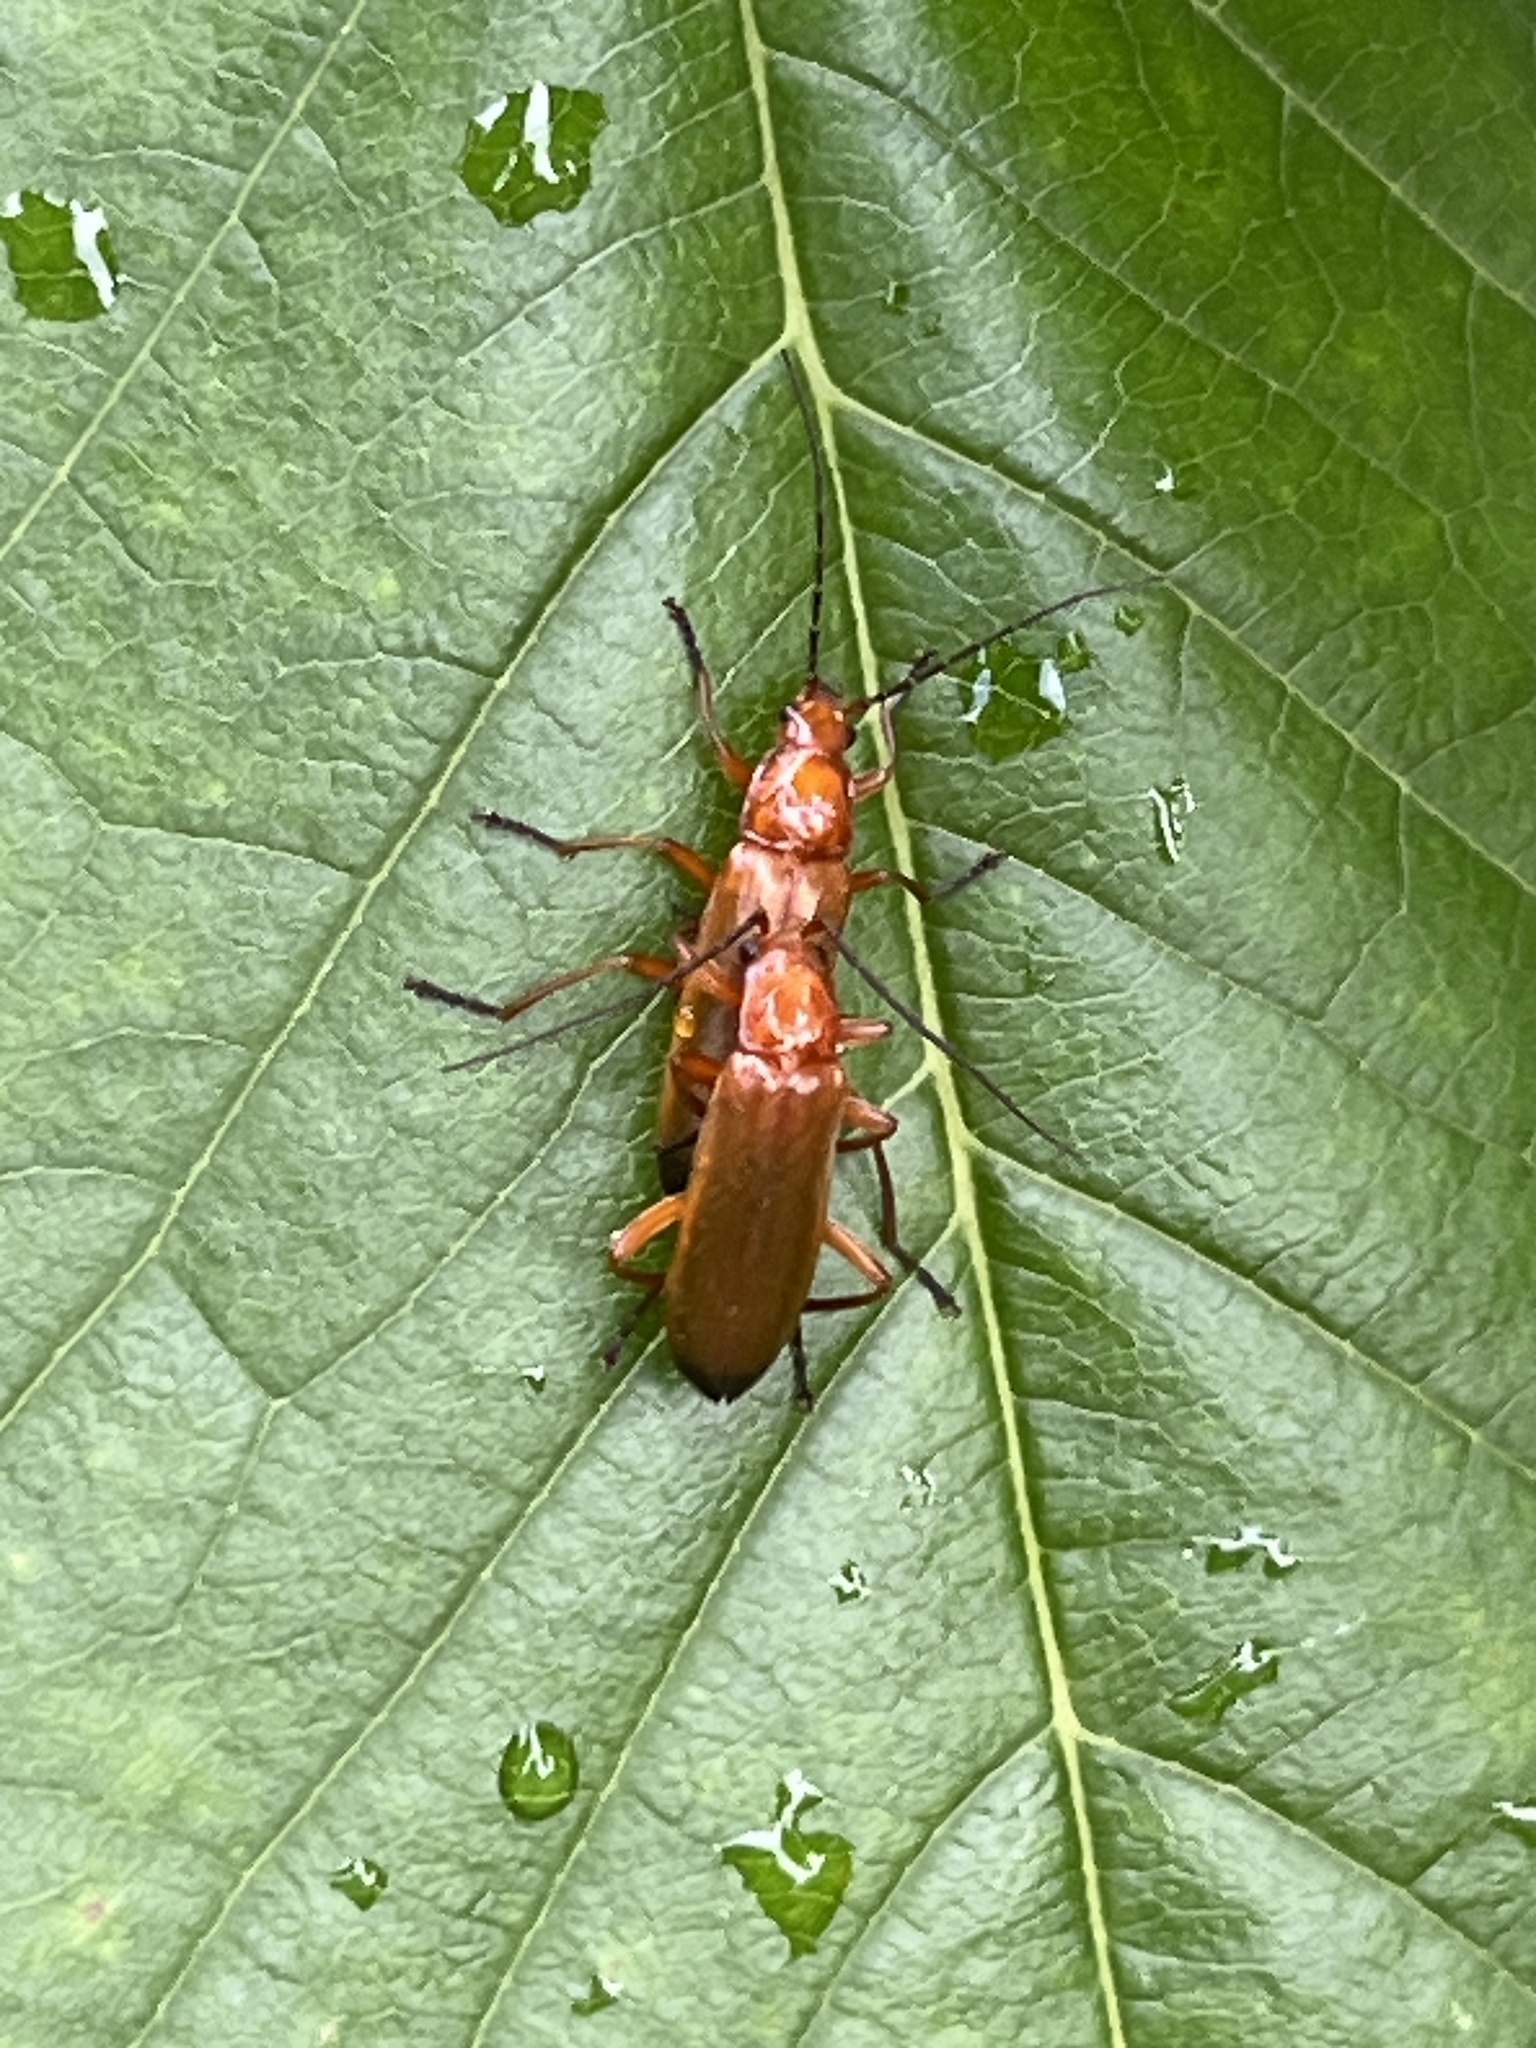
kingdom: Animalia
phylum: Arthropoda
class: Insecta
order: Coleoptera
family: Cantharidae
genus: Rhagonycha
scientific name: Rhagonycha fulva
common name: Common red soldier beetle
